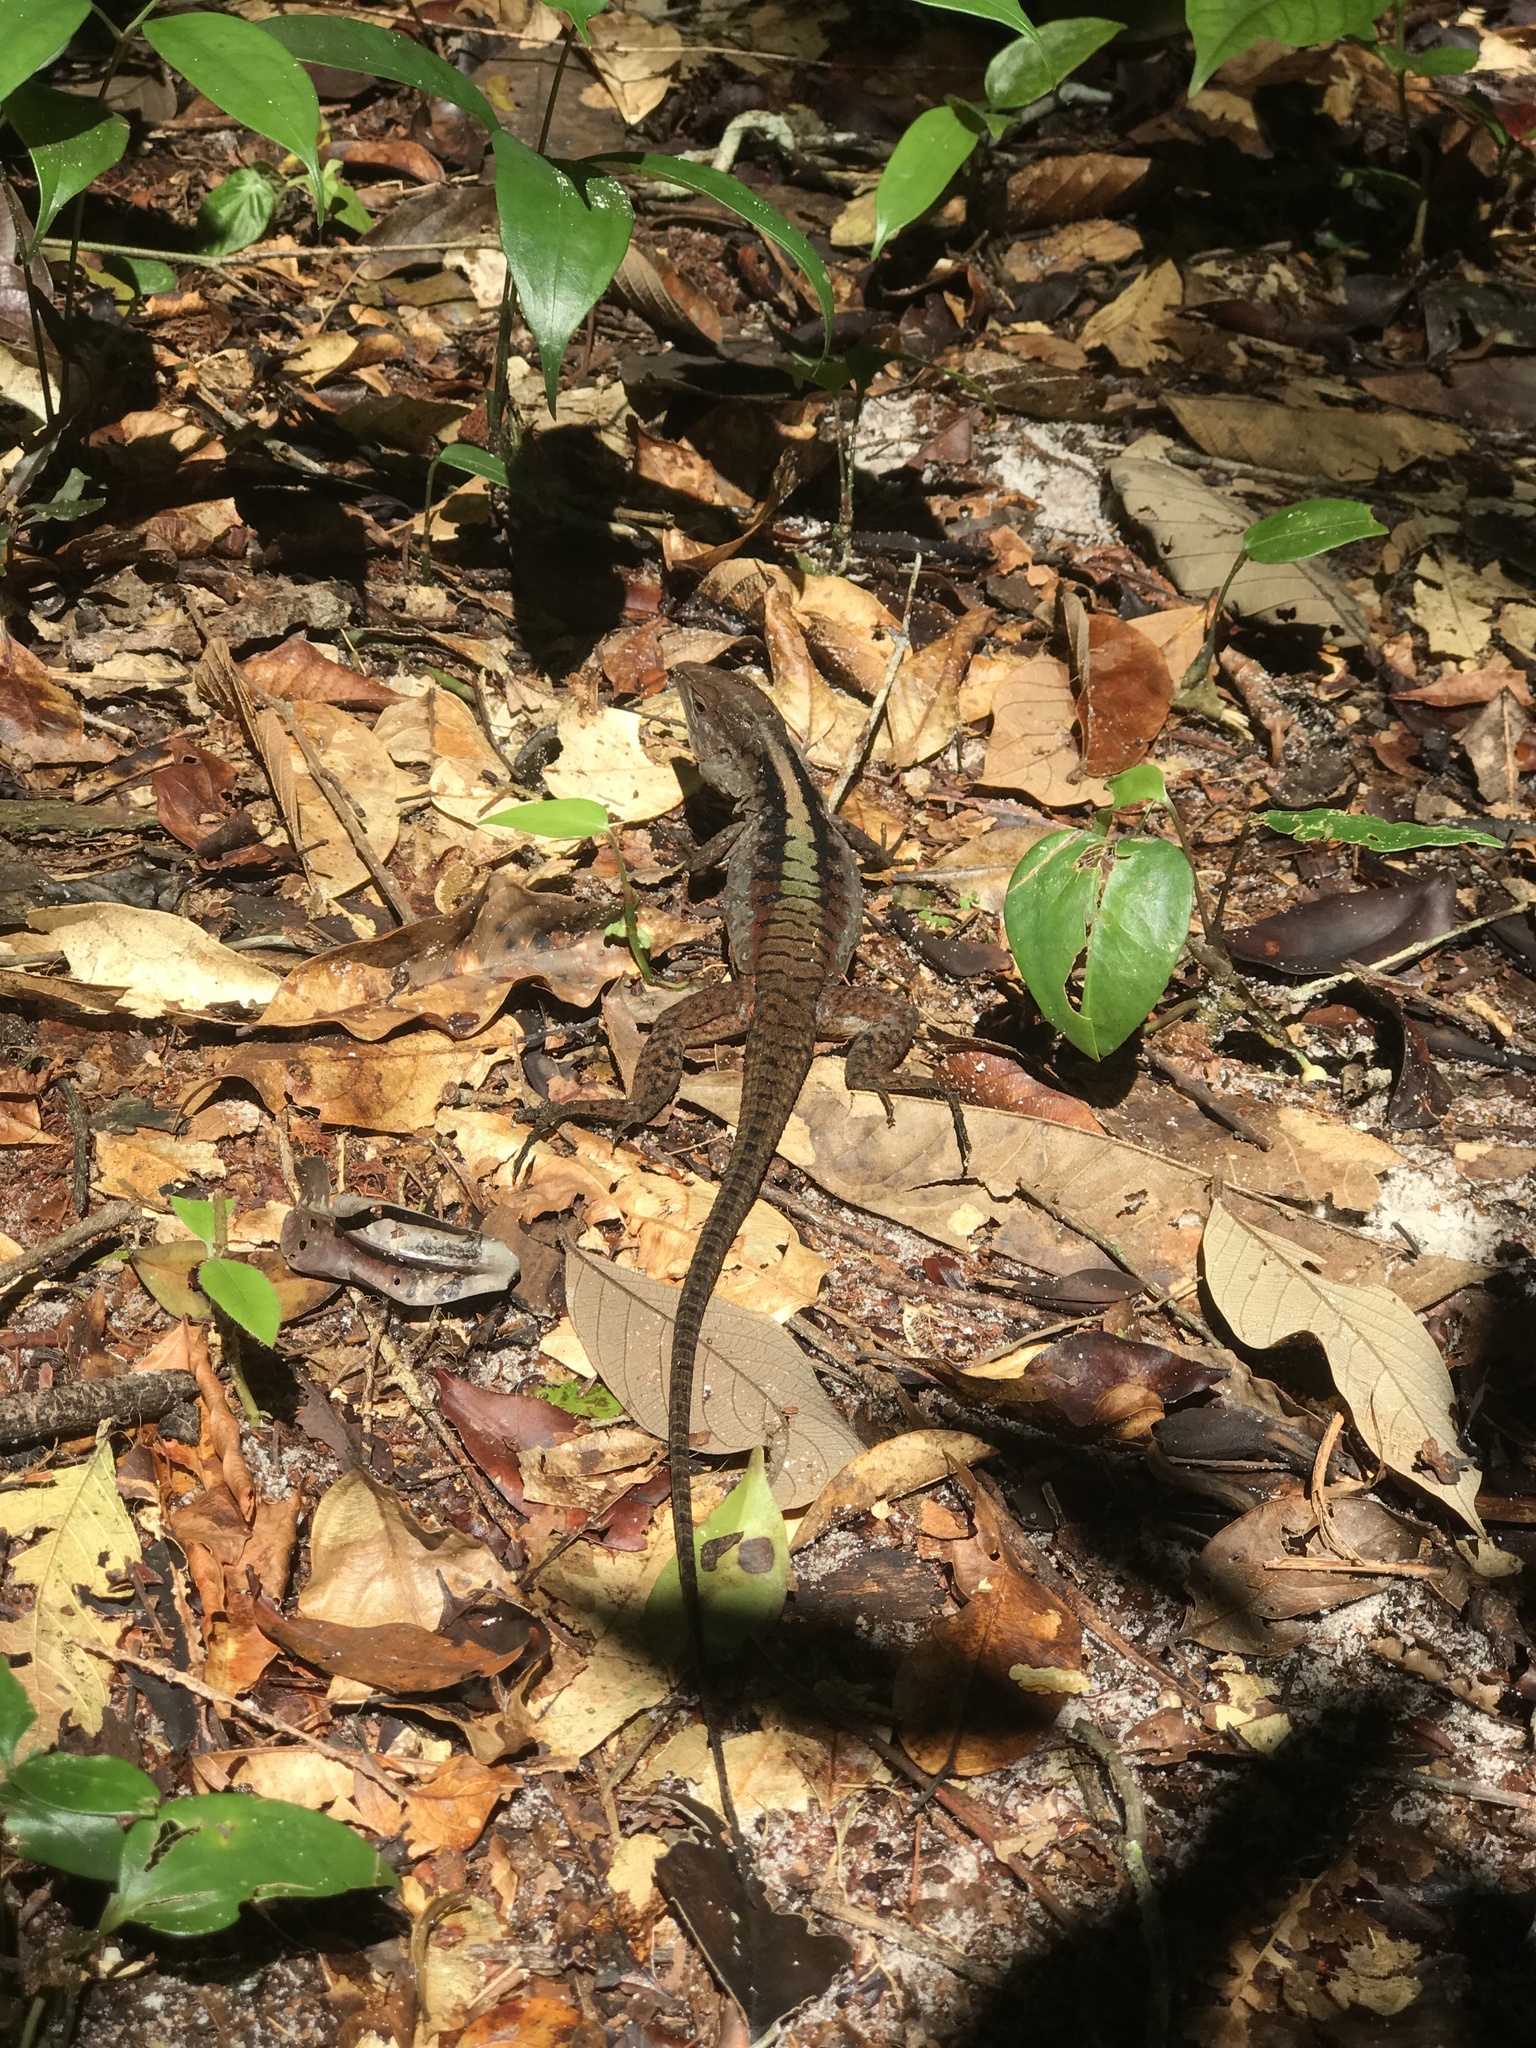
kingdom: Animalia
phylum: Chordata
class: Squamata
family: Teiidae
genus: Kentropyx
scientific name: Kentropyx pelviceps
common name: Forest whiptail
